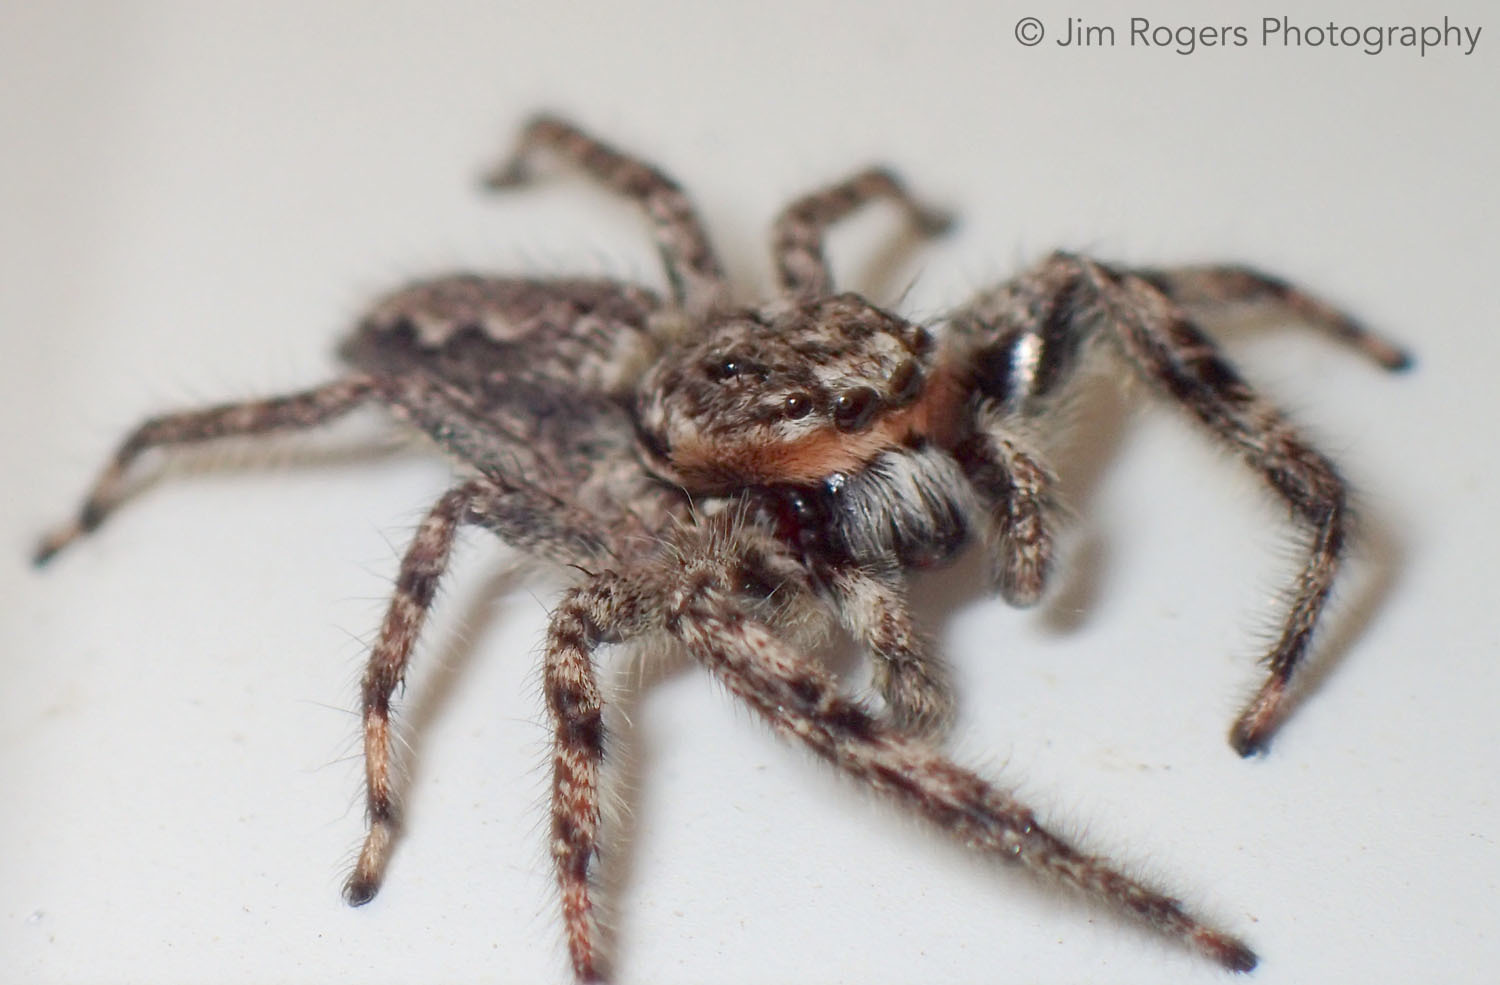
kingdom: Animalia
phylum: Arthropoda
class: Arachnida
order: Araneae
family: Salticidae
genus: Platycryptus
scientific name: Platycryptus undatus
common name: Tan jumping spider
